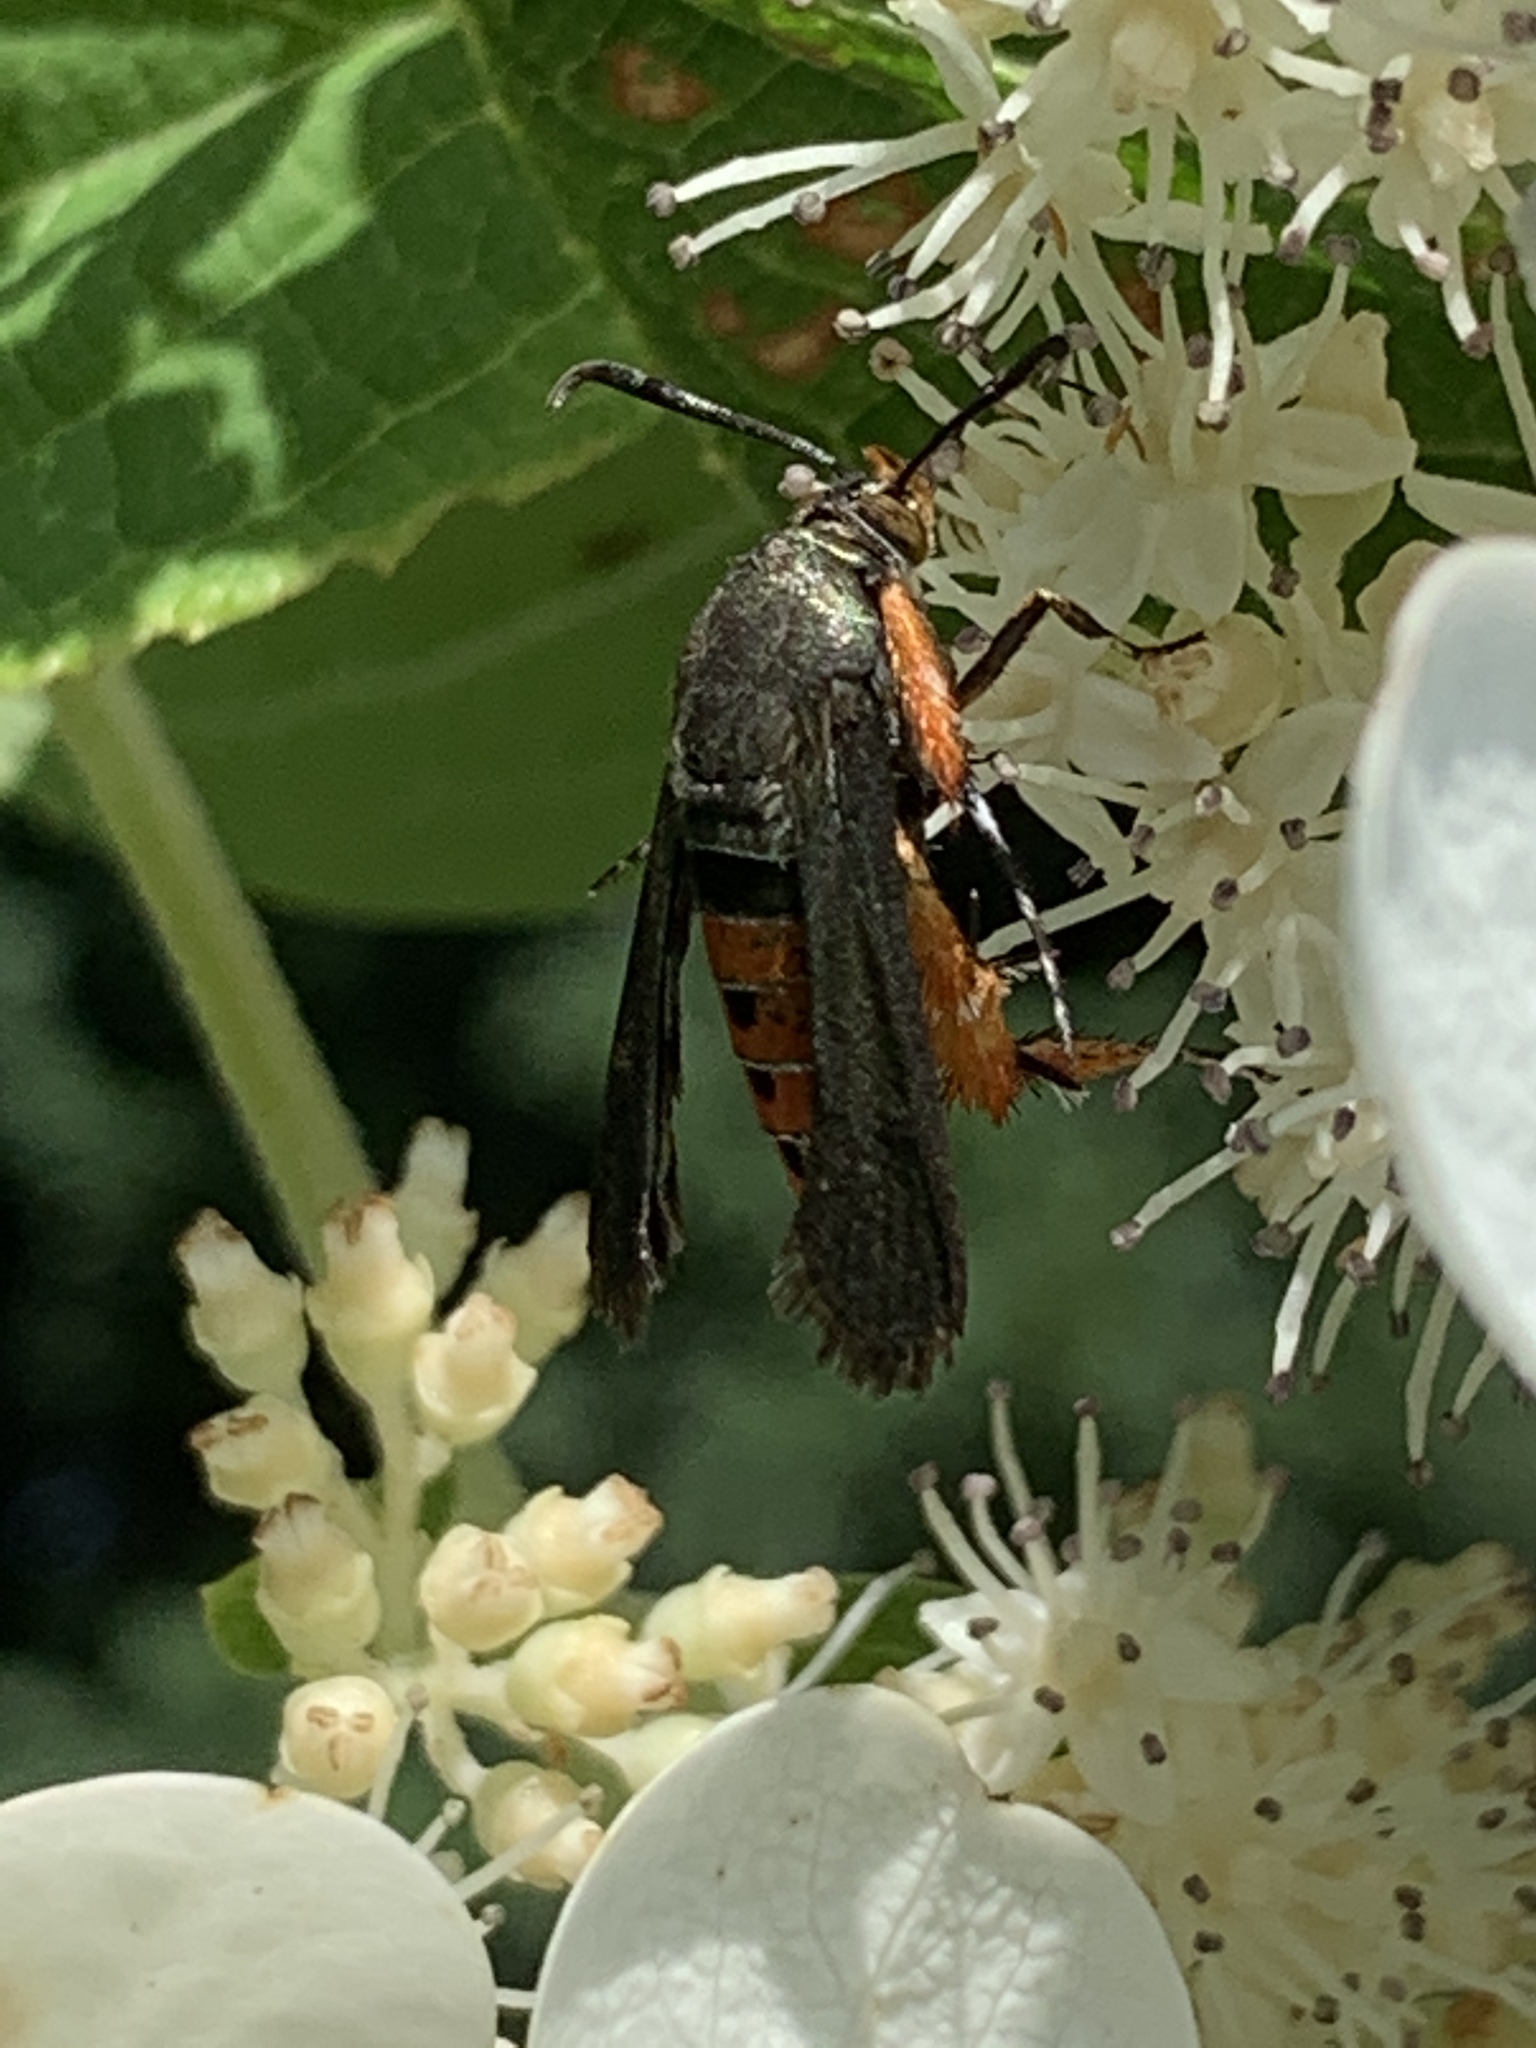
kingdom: Animalia
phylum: Arthropoda
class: Insecta
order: Lepidoptera
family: Sesiidae
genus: Eichlinia
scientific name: Eichlinia cucurbitae
